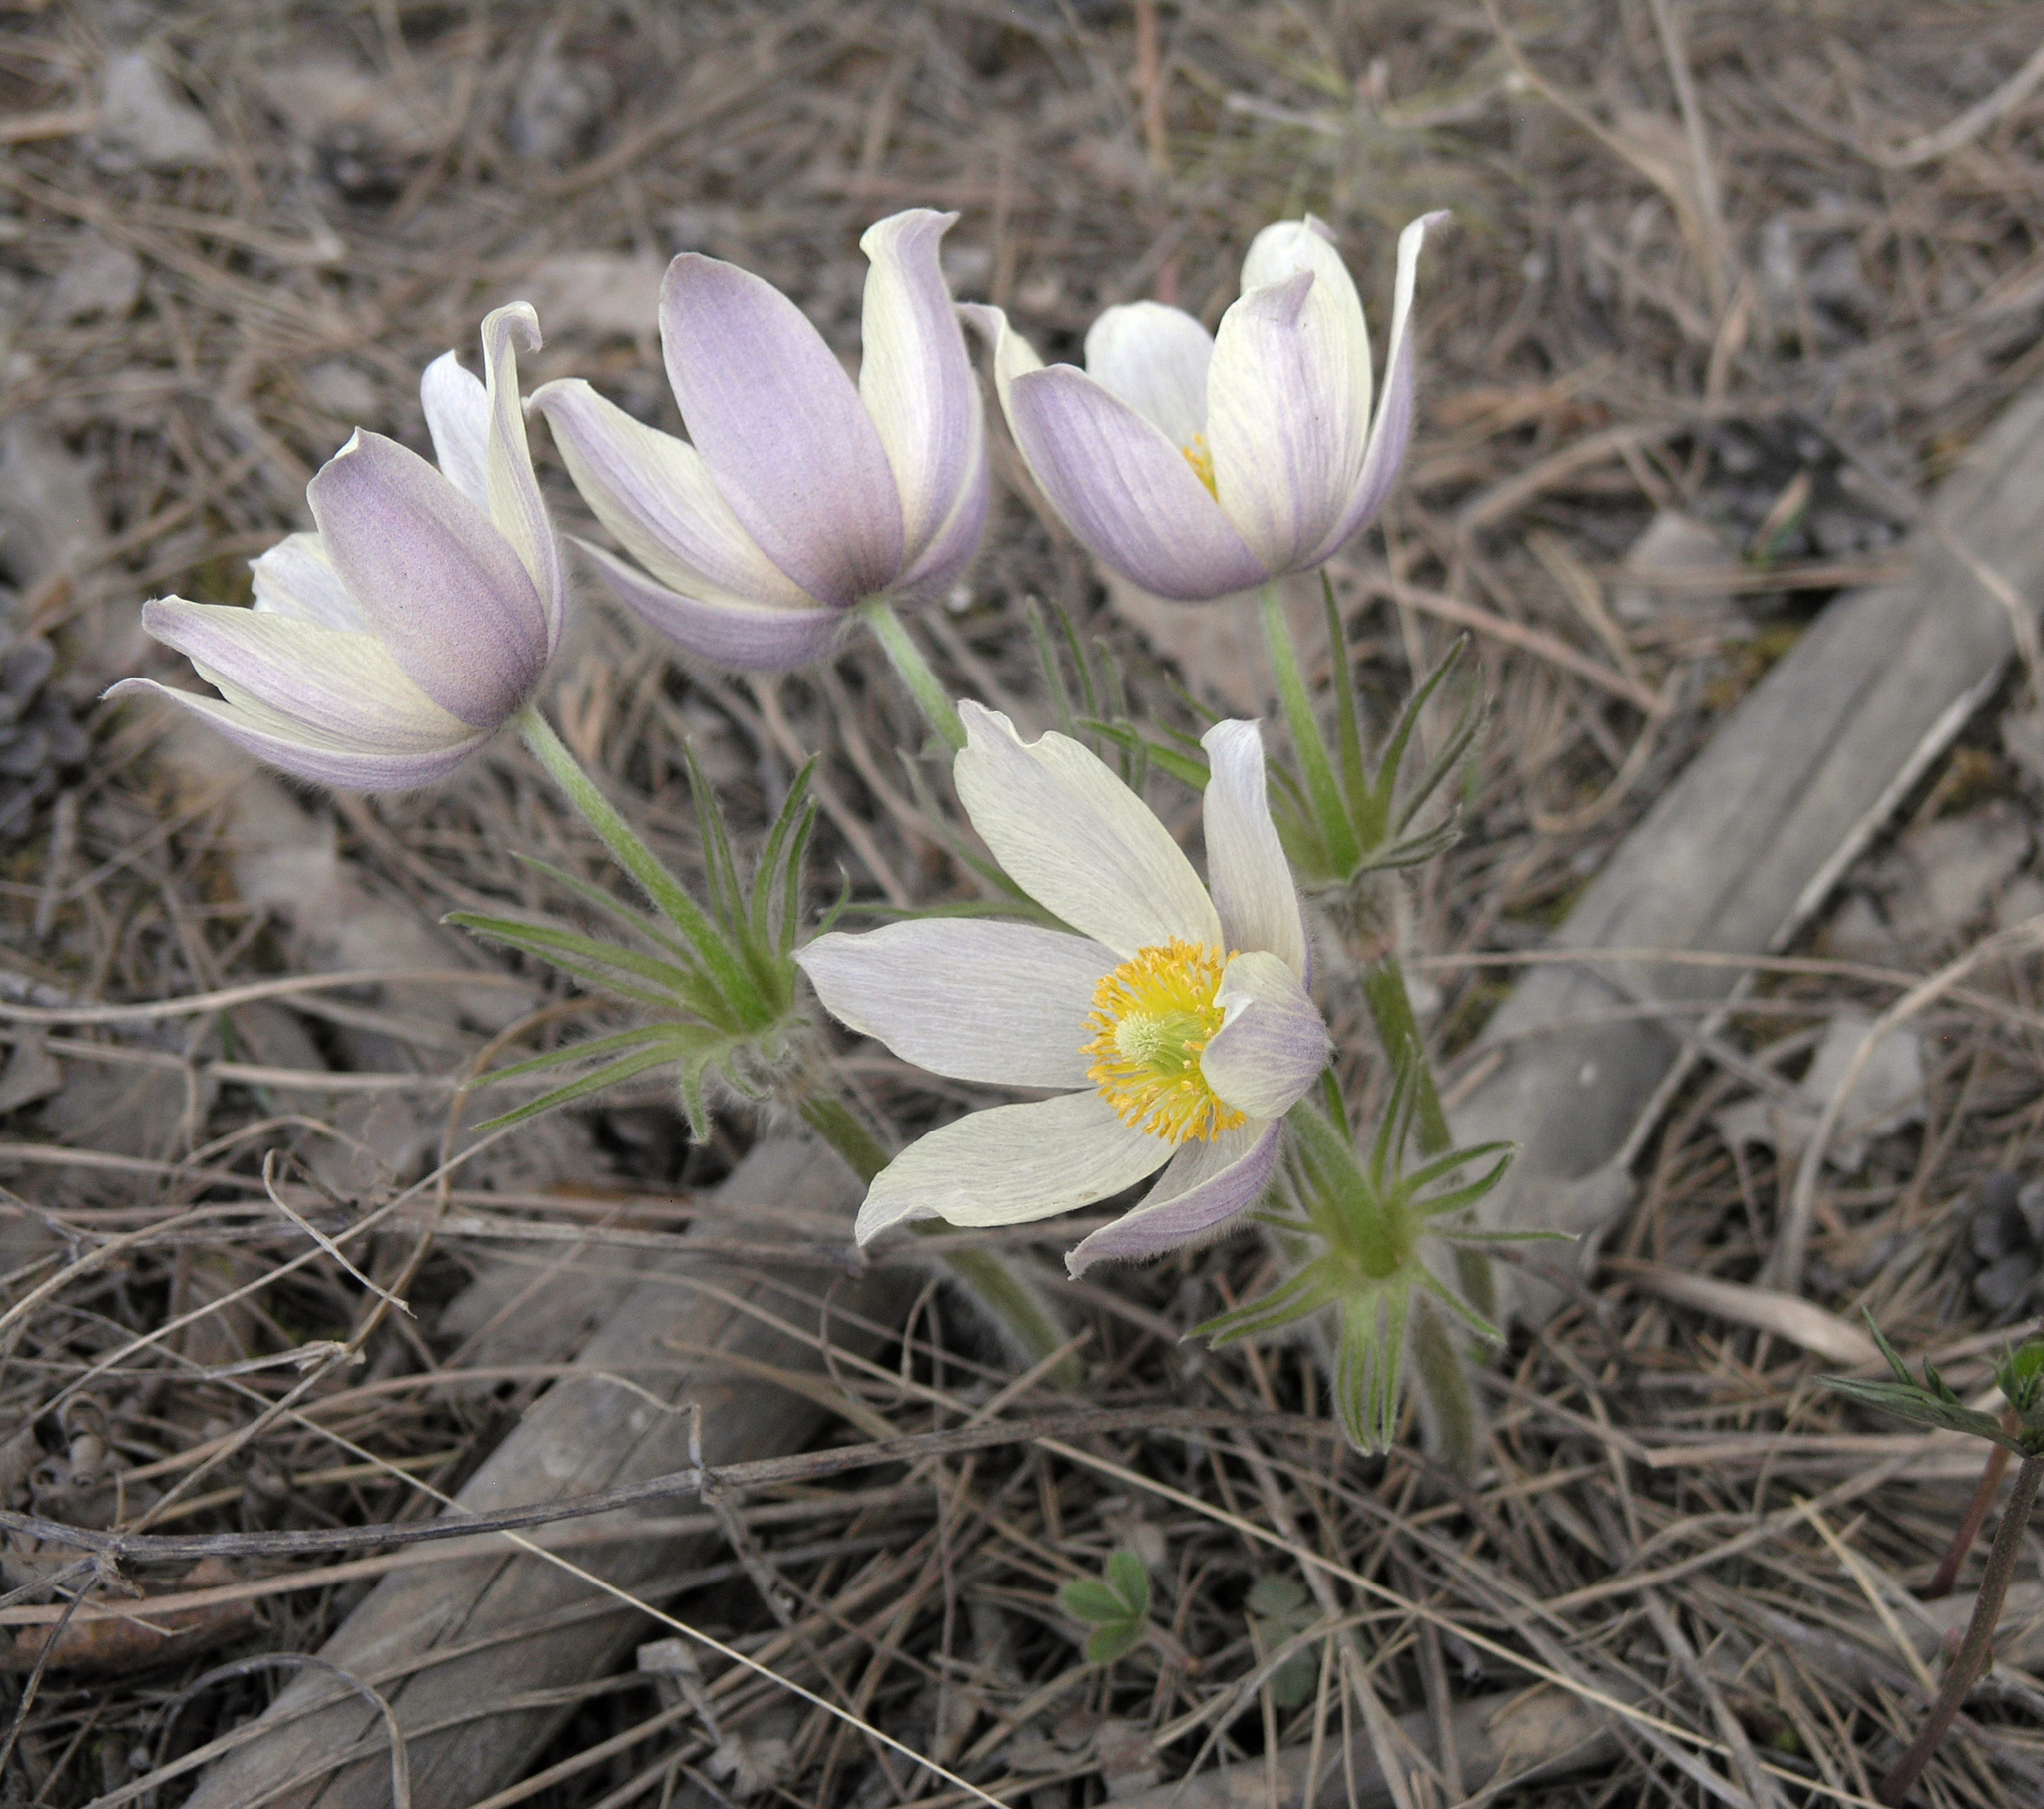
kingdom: Plantae
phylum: Tracheophyta
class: Magnoliopsida
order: Ranunculales
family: Ranunculaceae
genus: Pulsatilla
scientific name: Pulsatilla patens
